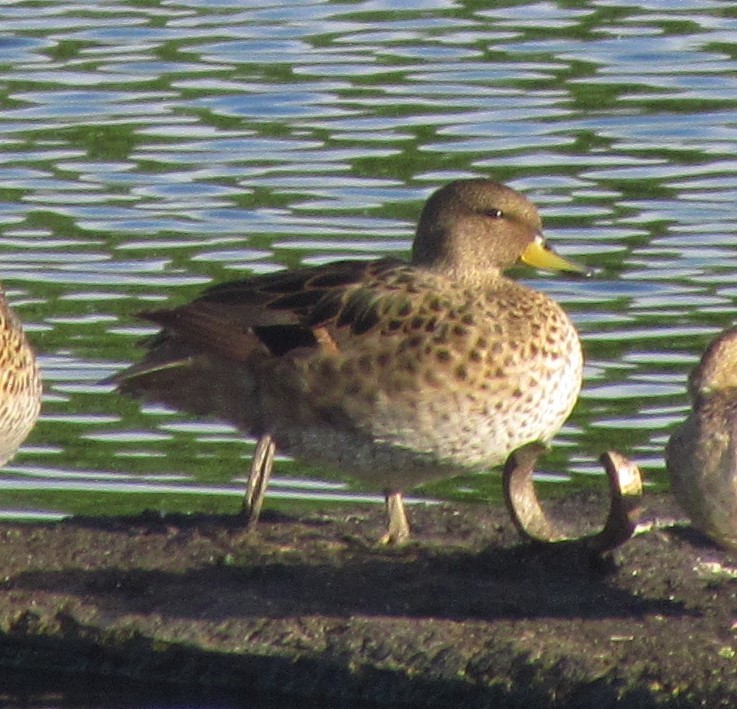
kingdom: Animalia
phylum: Chordata
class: Aves
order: Anseriformes
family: Anatidae
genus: Anas
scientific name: Anas flavirostris
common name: Yellow-billed teal
